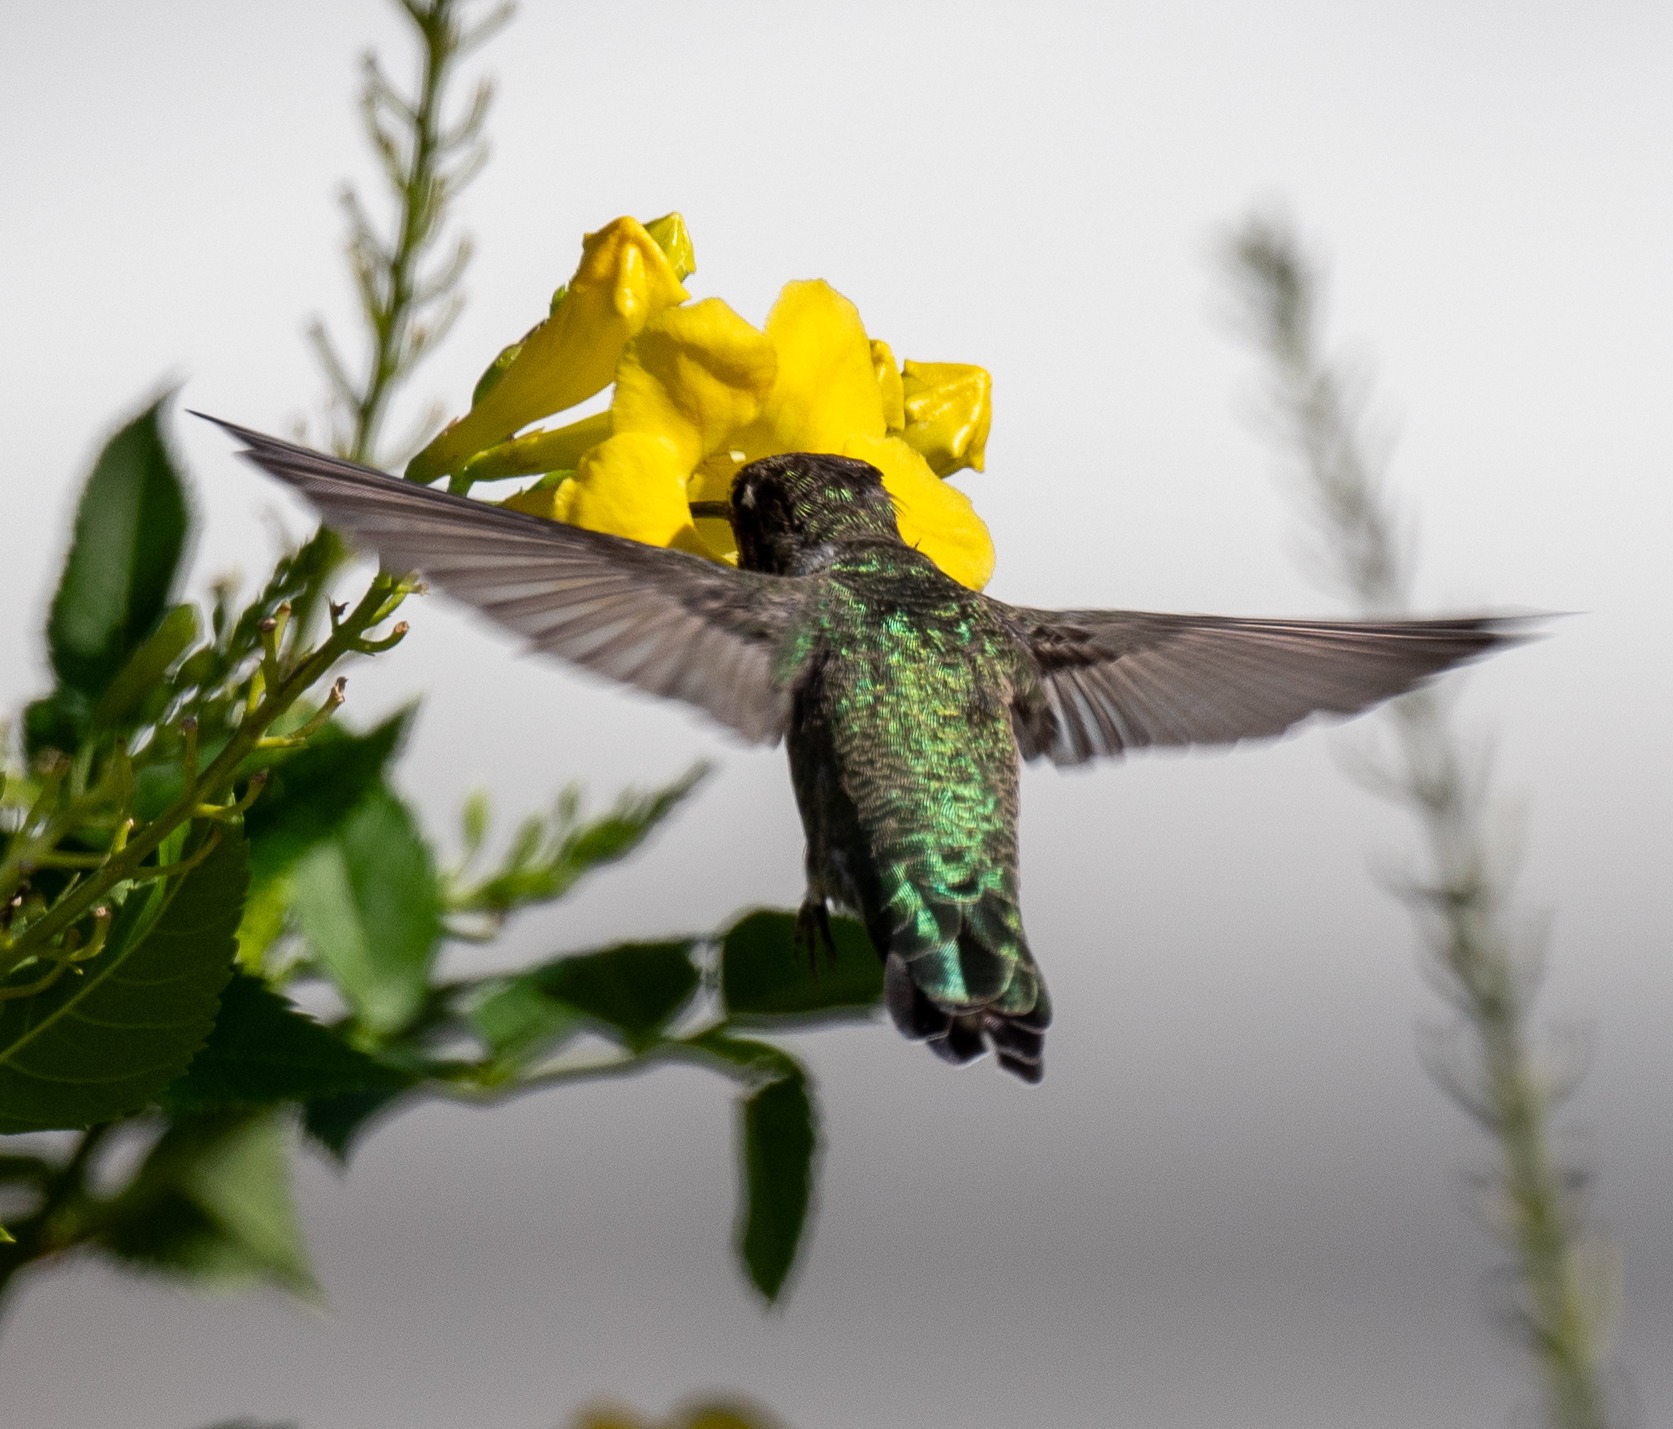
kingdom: Animalia
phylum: Chordata
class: Aves
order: Apodiformes
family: Trochilidae
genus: Calypte
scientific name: Calypte anna
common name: Anna's hummingbird
